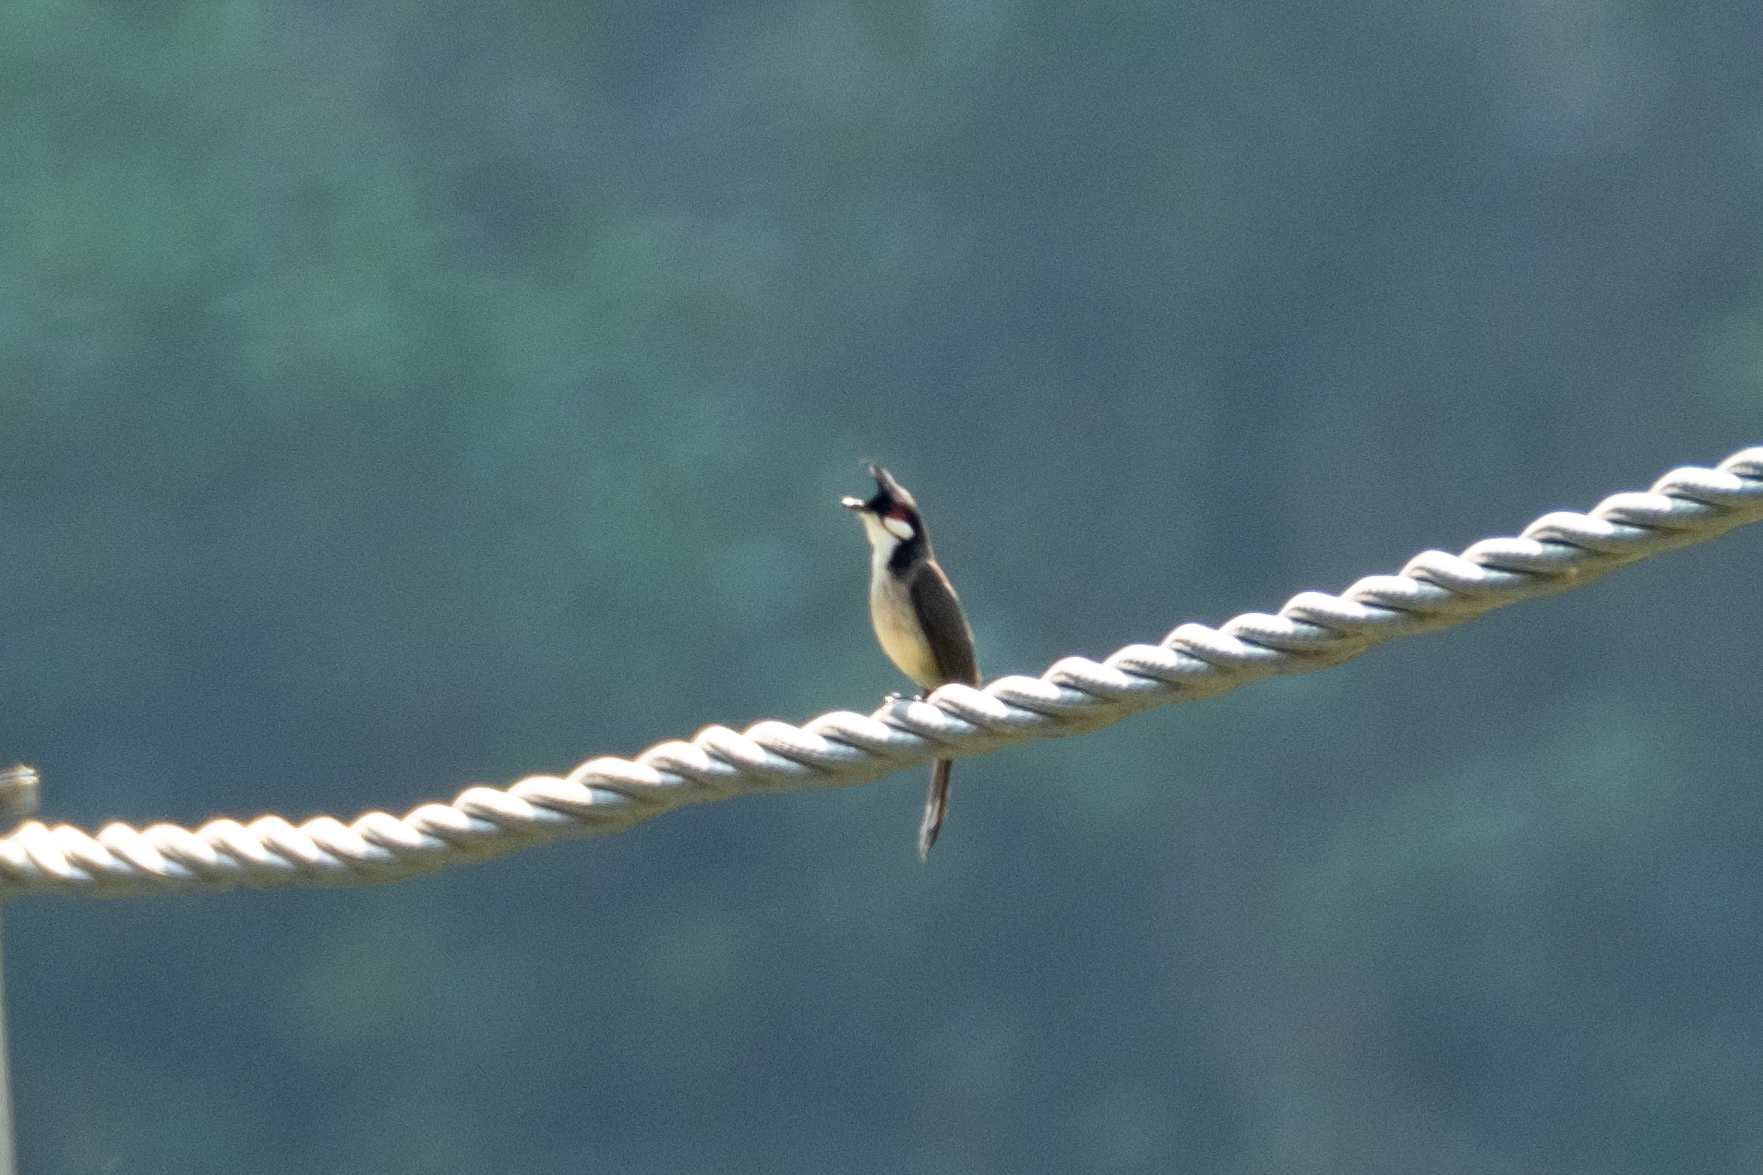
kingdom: Animalia
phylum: Chordata
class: Aves
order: Passeriformes
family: Pycnonotidae
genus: Pycnonotus
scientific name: Pycnonotus jocosus
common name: Red-whiskered bulbul
